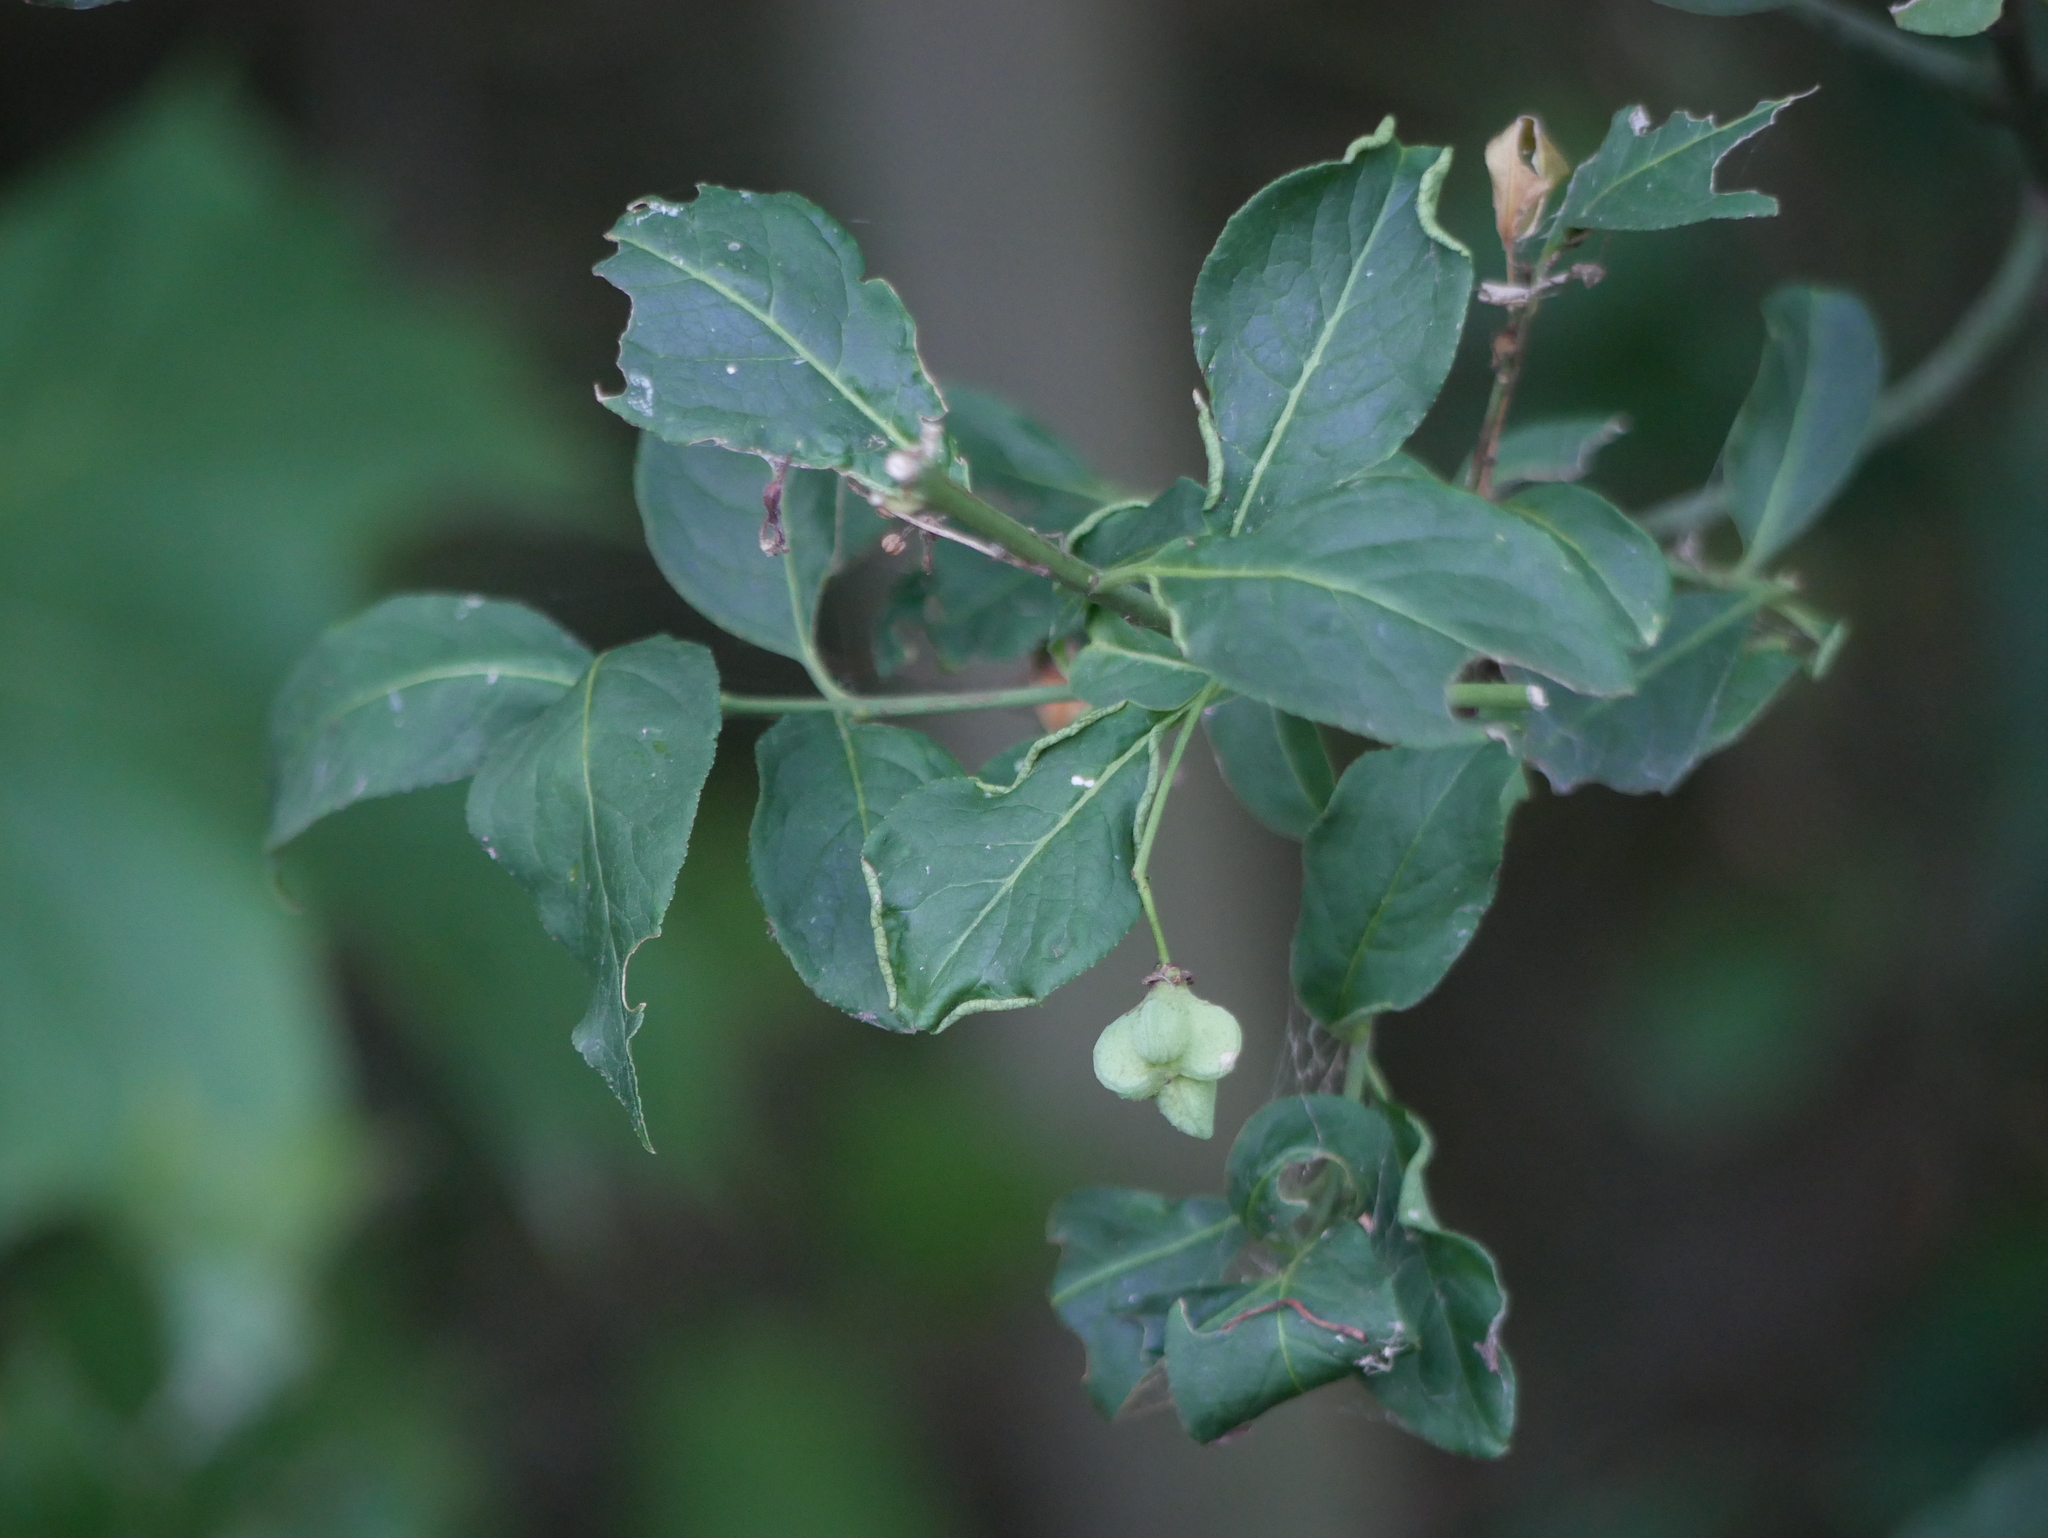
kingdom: Plantae
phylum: Tracheophyta
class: Magnoliopsida
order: Celastrales
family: Celastraceae
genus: Euonymus
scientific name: Euonymus europaeus
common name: Spindle
